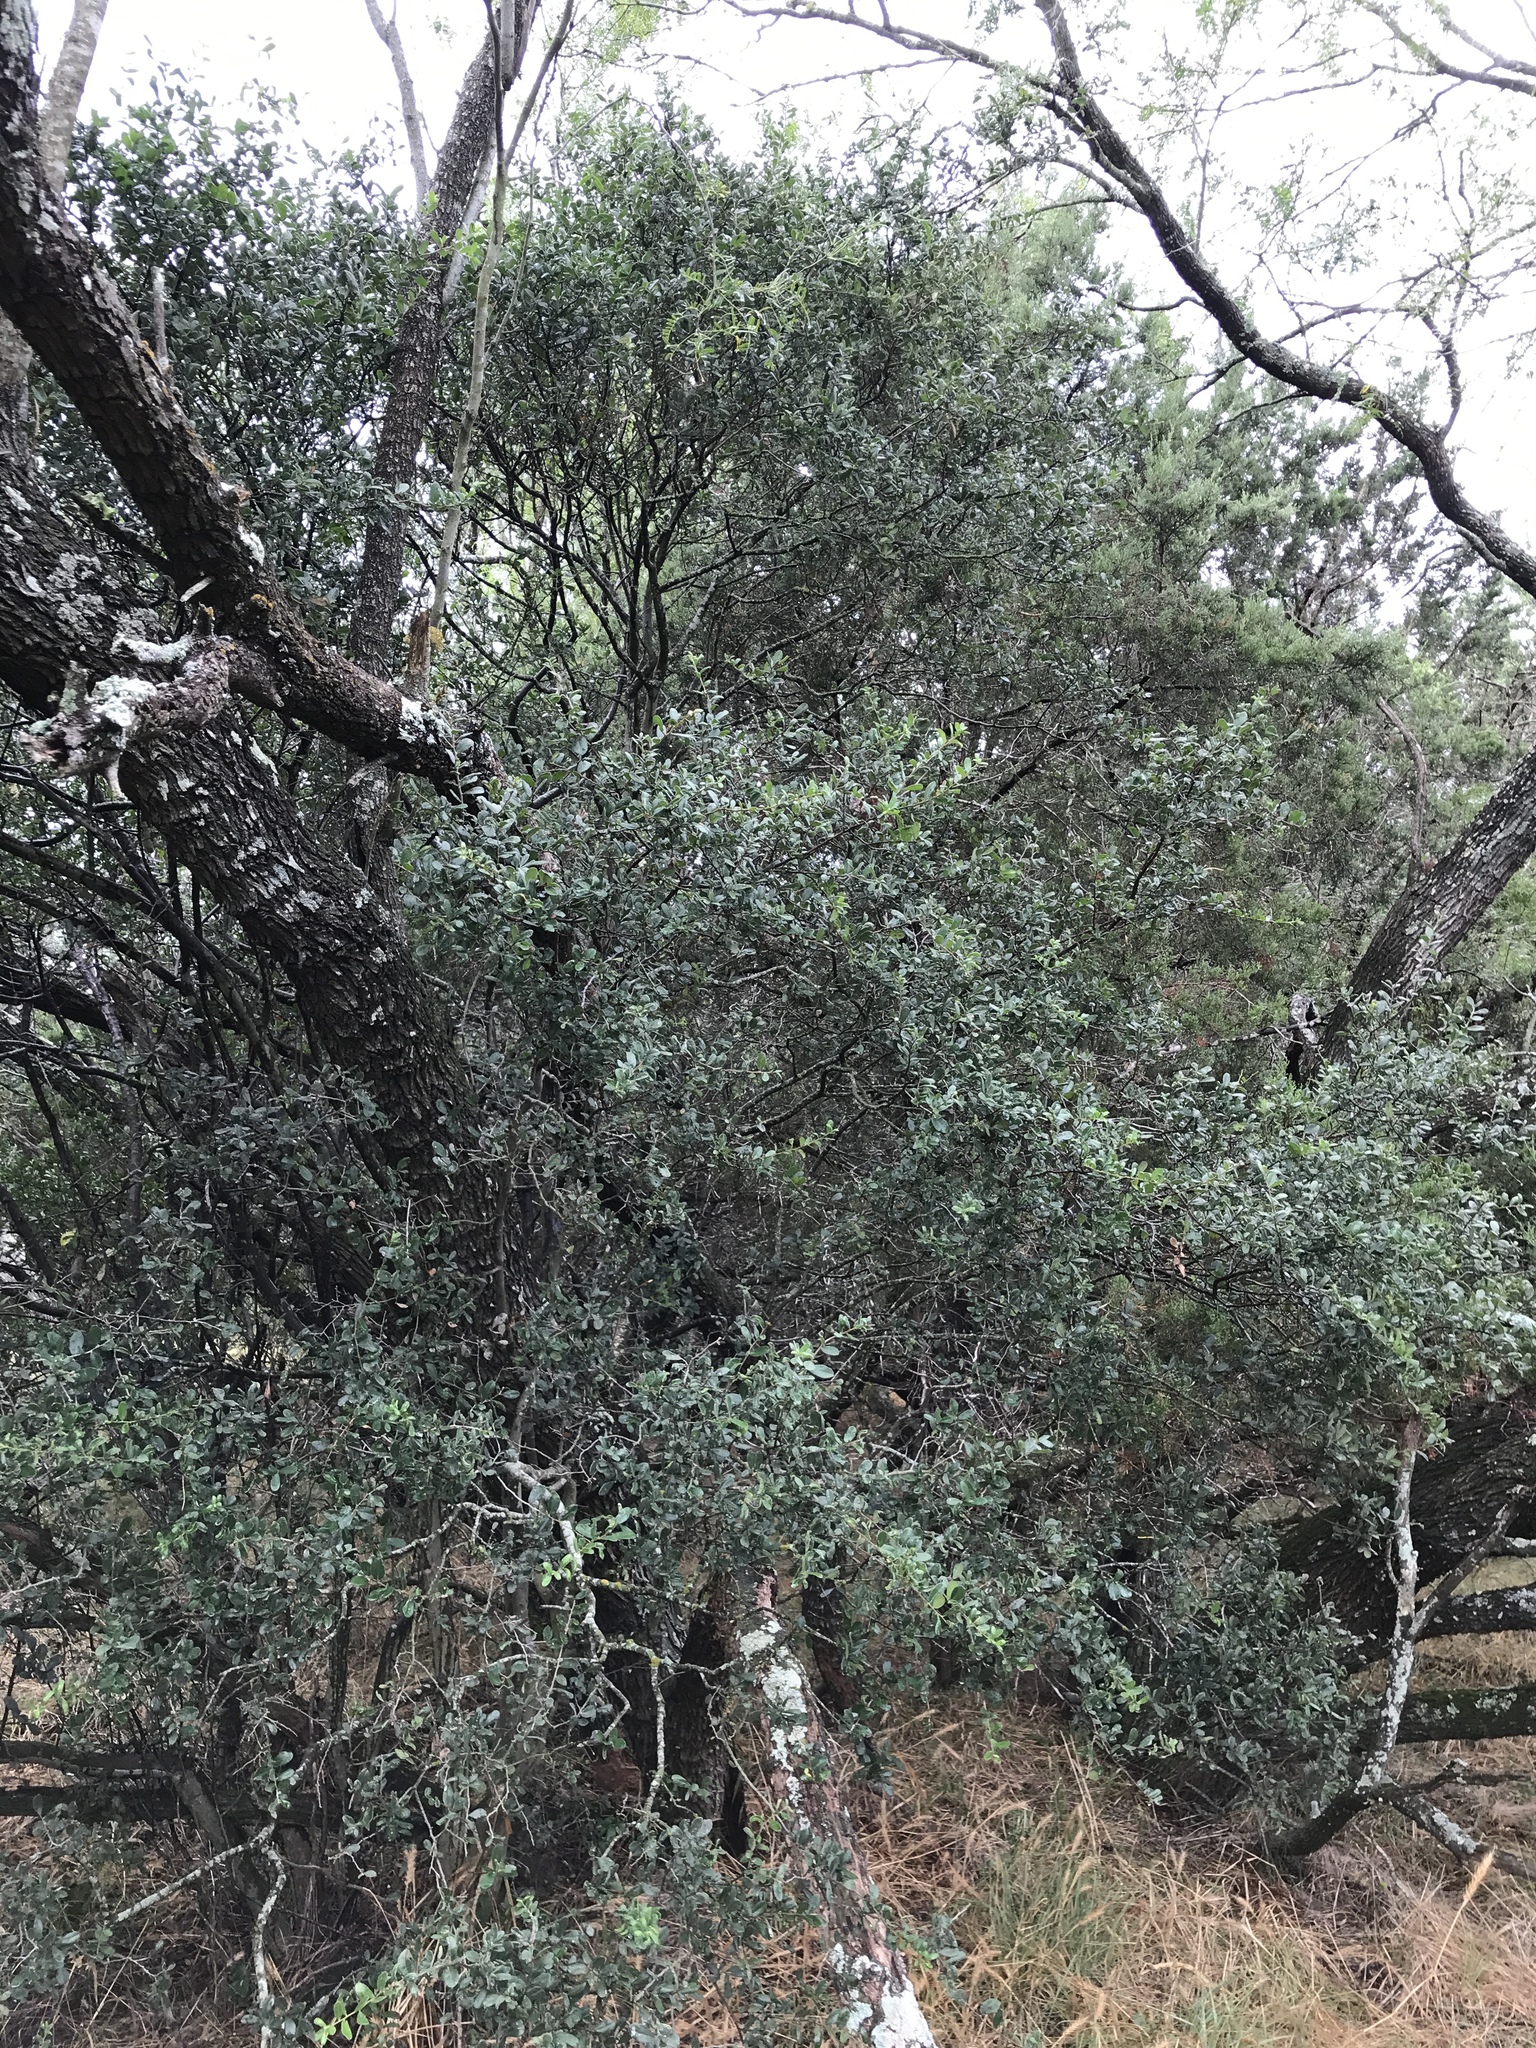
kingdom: Plantae
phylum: Tracheophyta
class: Magnoliopsida
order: Ericales
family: Ebenaceae
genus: Diospyros
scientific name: Diospyros texana
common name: Texas persimmon
